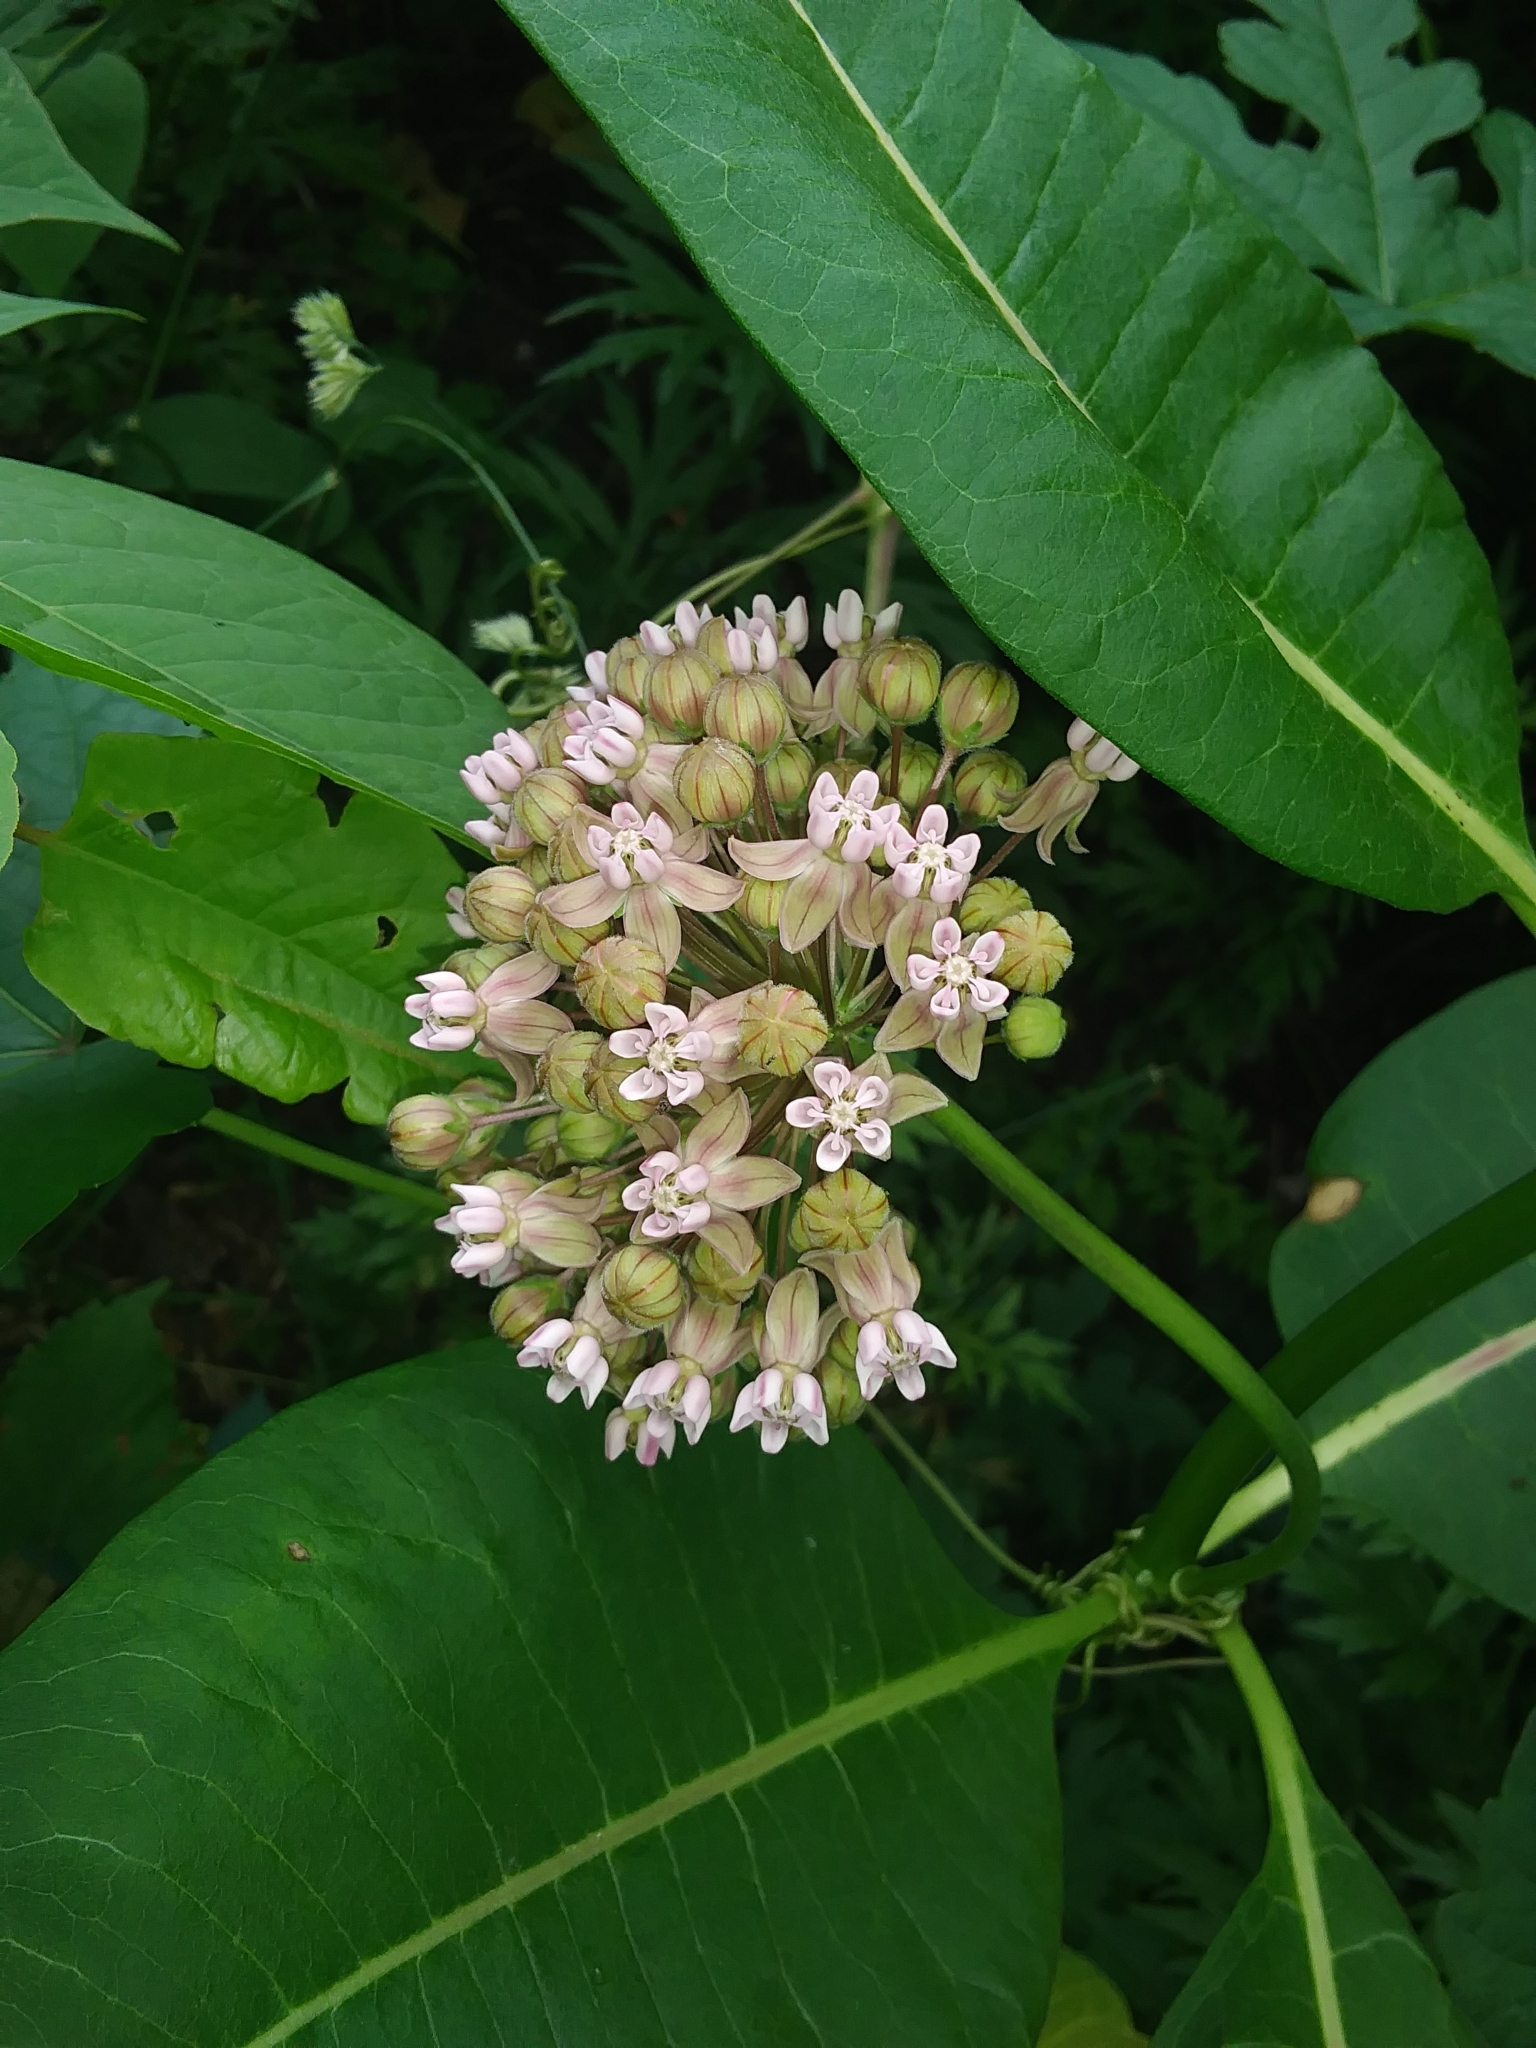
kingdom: Plantae
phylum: Tracheophyta
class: Magnoliopsida
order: Gentianales
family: Apocynaceae
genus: Asclepias
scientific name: Asclepias syriaca
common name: Common milkweed
